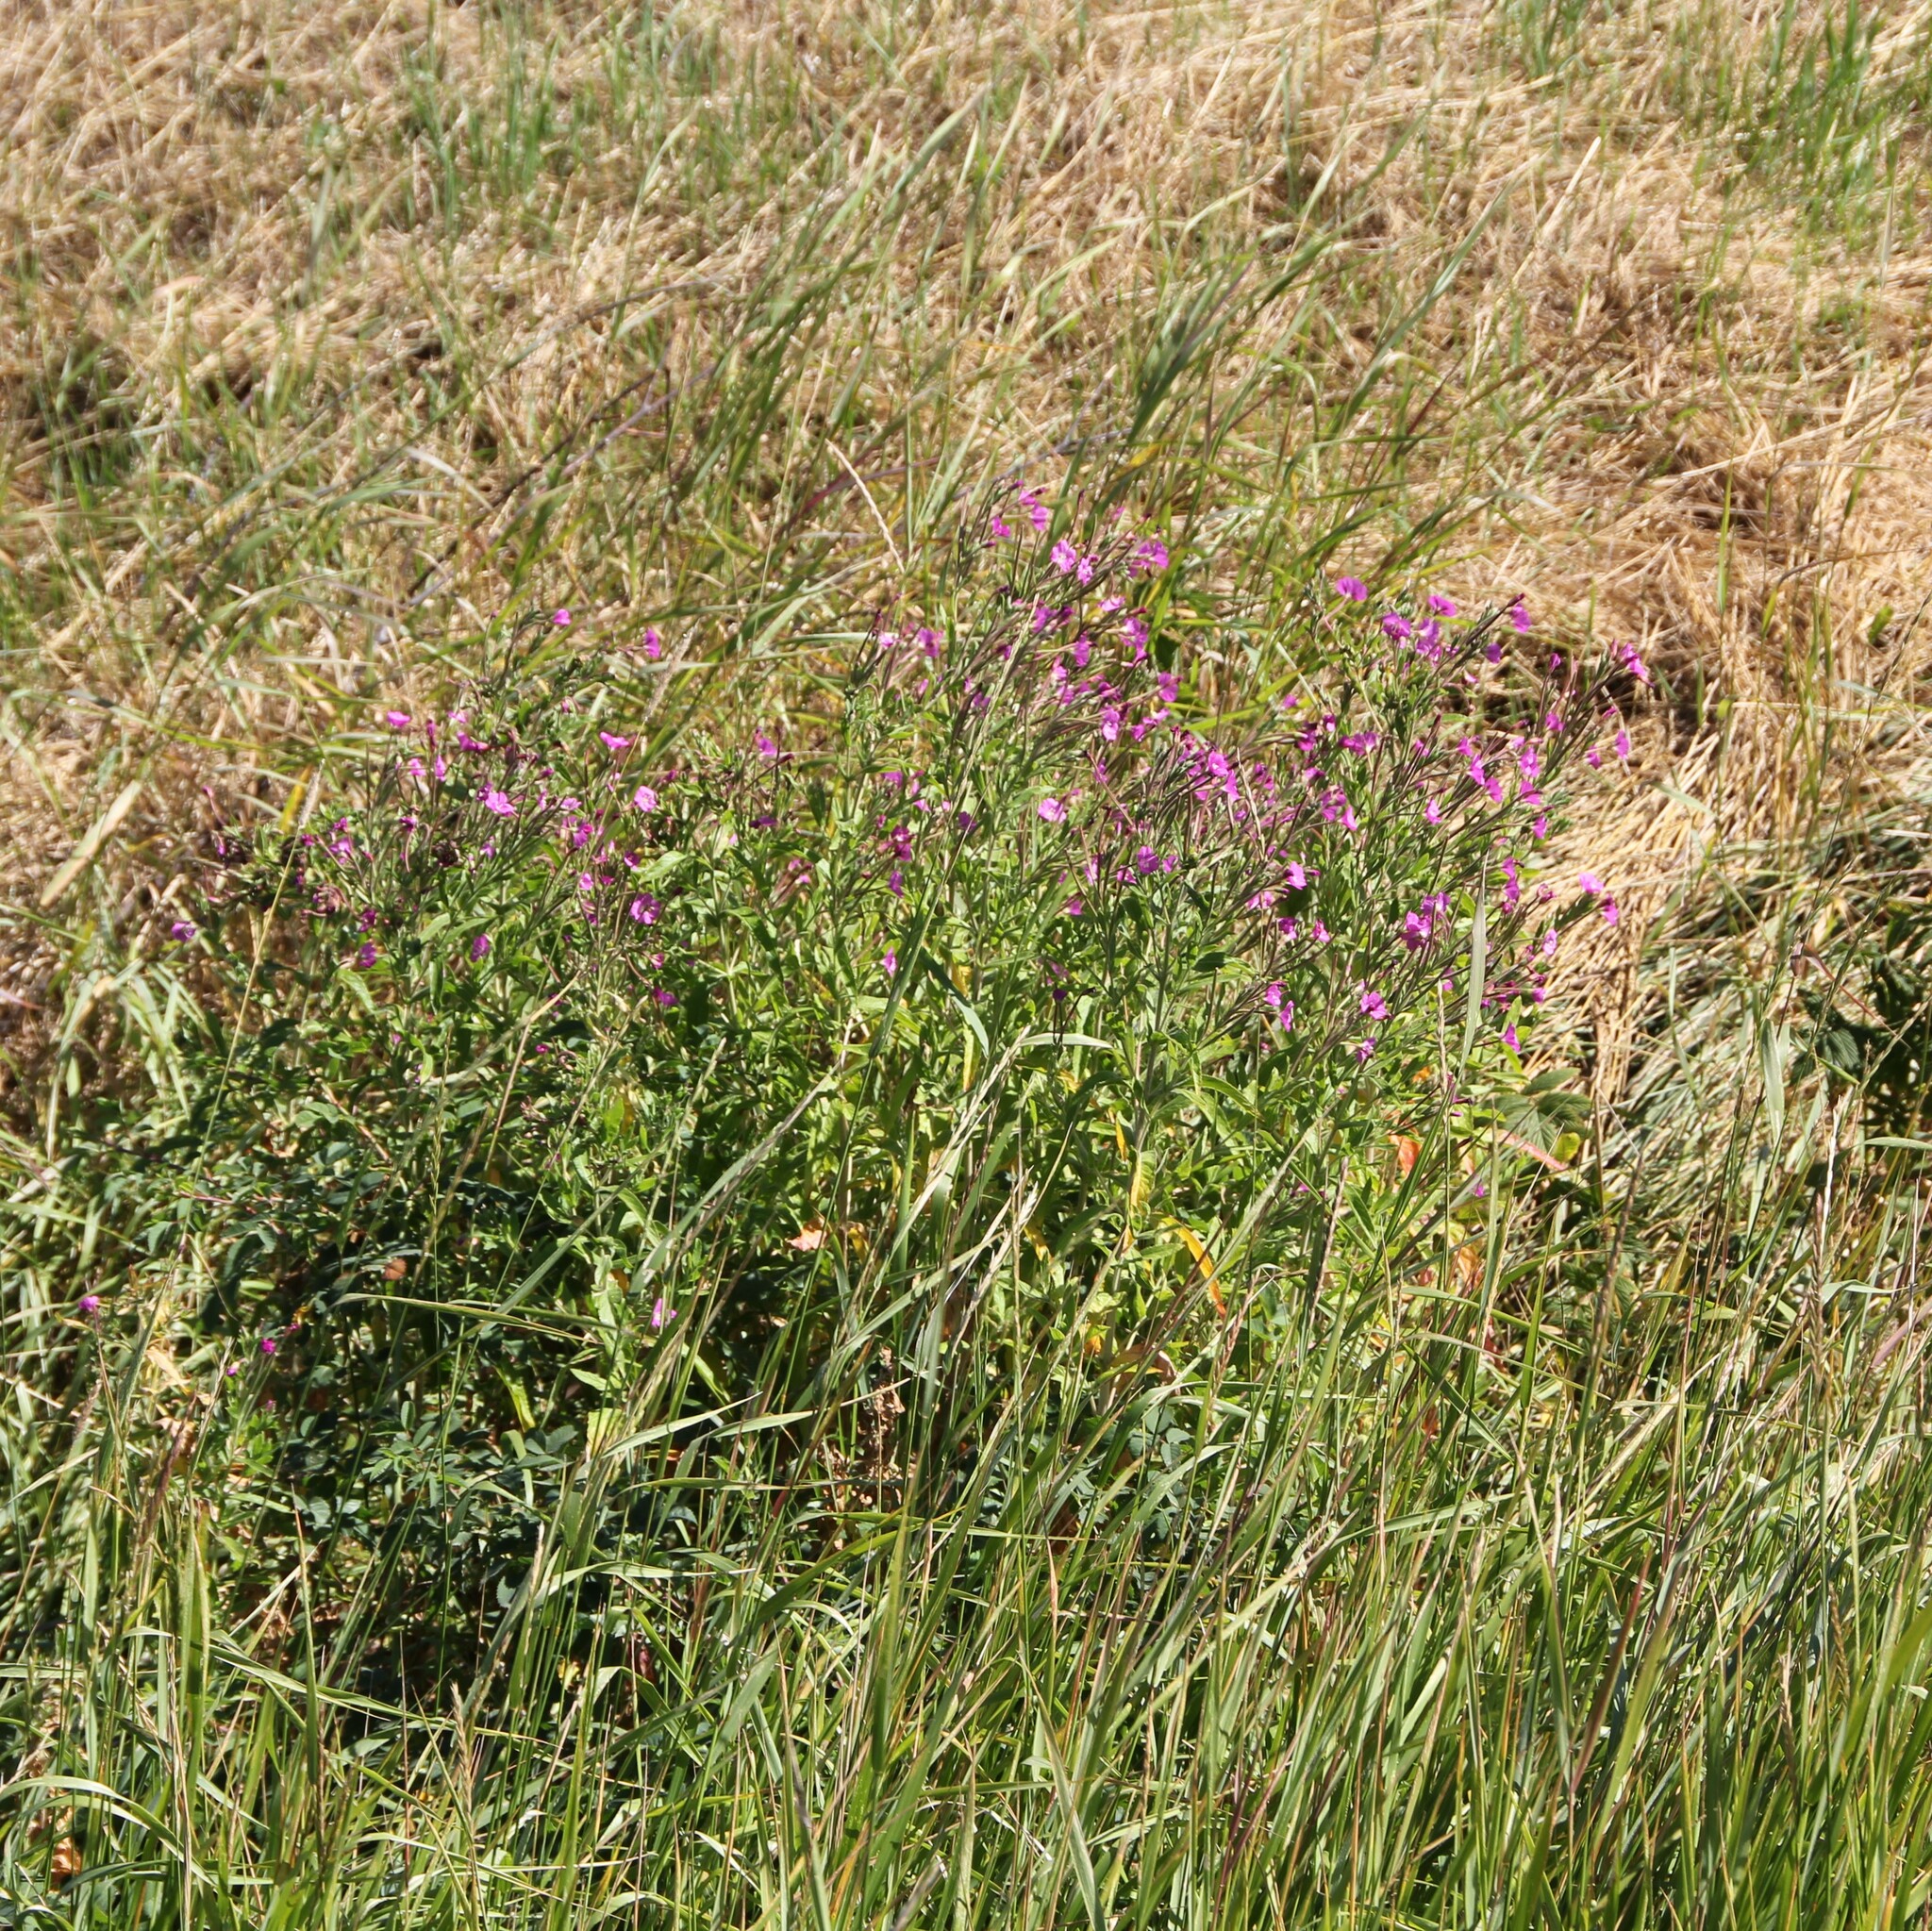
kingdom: Plantae
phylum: Tracheophyta
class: Magnoliopsida
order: Myrtales
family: Onagraceae
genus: Epilobium
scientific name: Epilobium hirsutum
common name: Great willowherb
